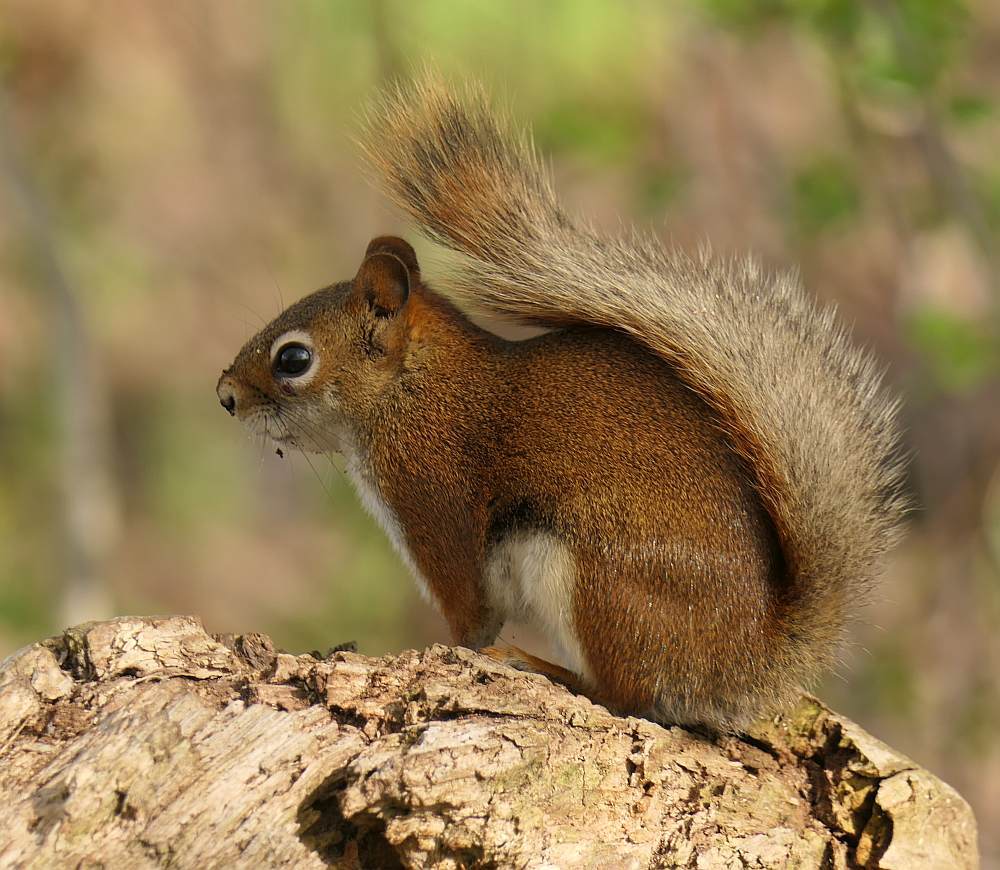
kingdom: Animalia
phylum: Chordata
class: Mammalia
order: Rodentia
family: Sciuridae
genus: Tamiasciurus
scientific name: Tamiasciurus hudsonicus
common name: Red squirrel
